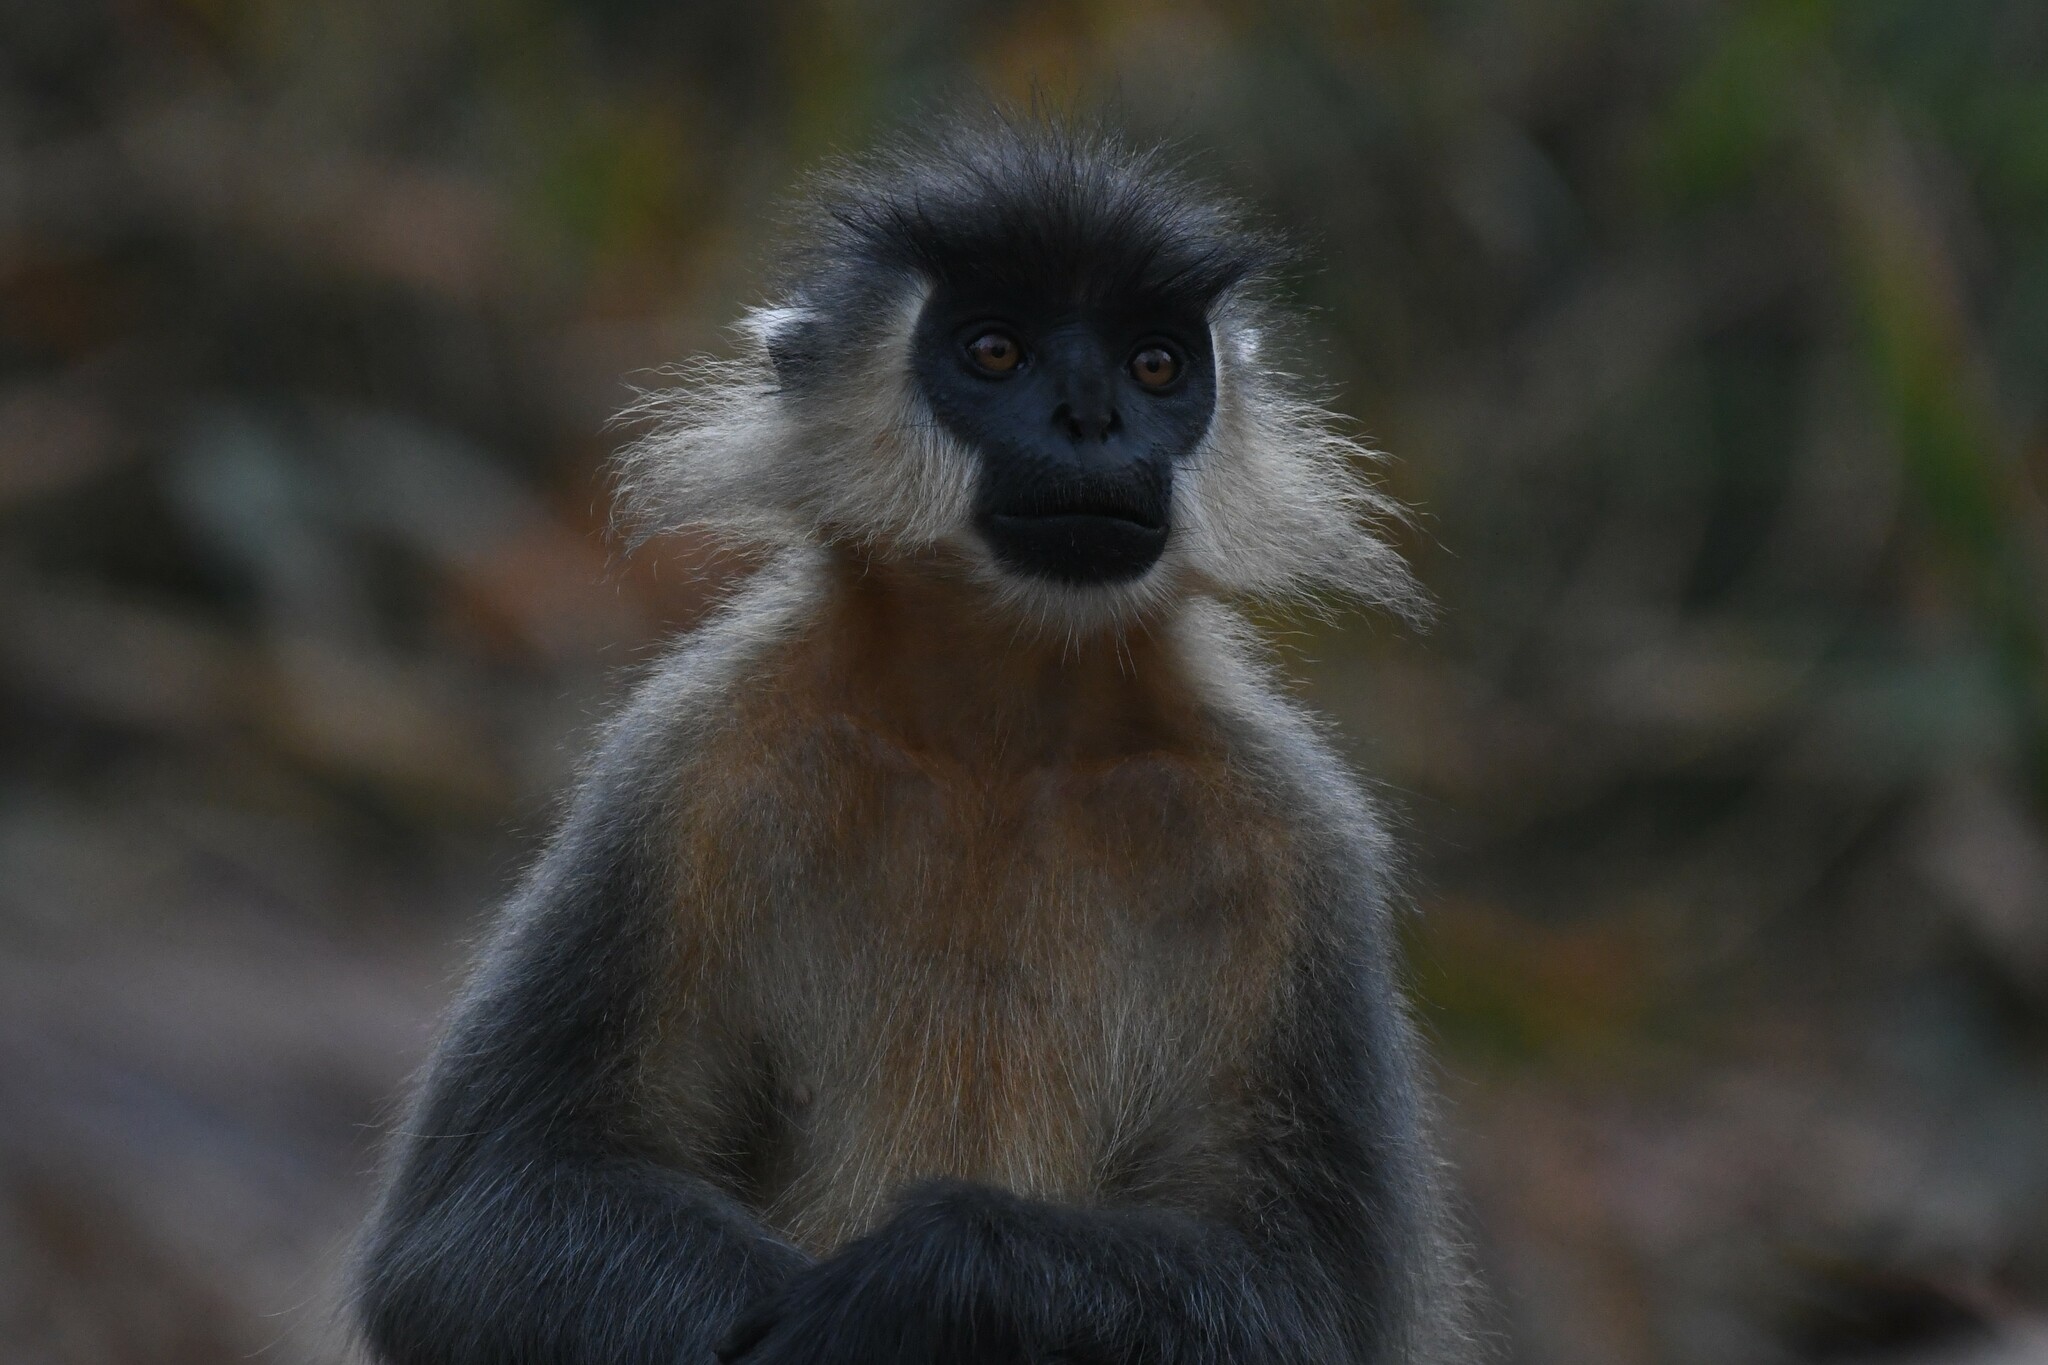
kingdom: Animalia
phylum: Chordata
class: Mammalia
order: Primates
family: Cercopithecidae
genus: Trachypithecus
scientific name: Trachypithecus pileatus
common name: Capped langur
